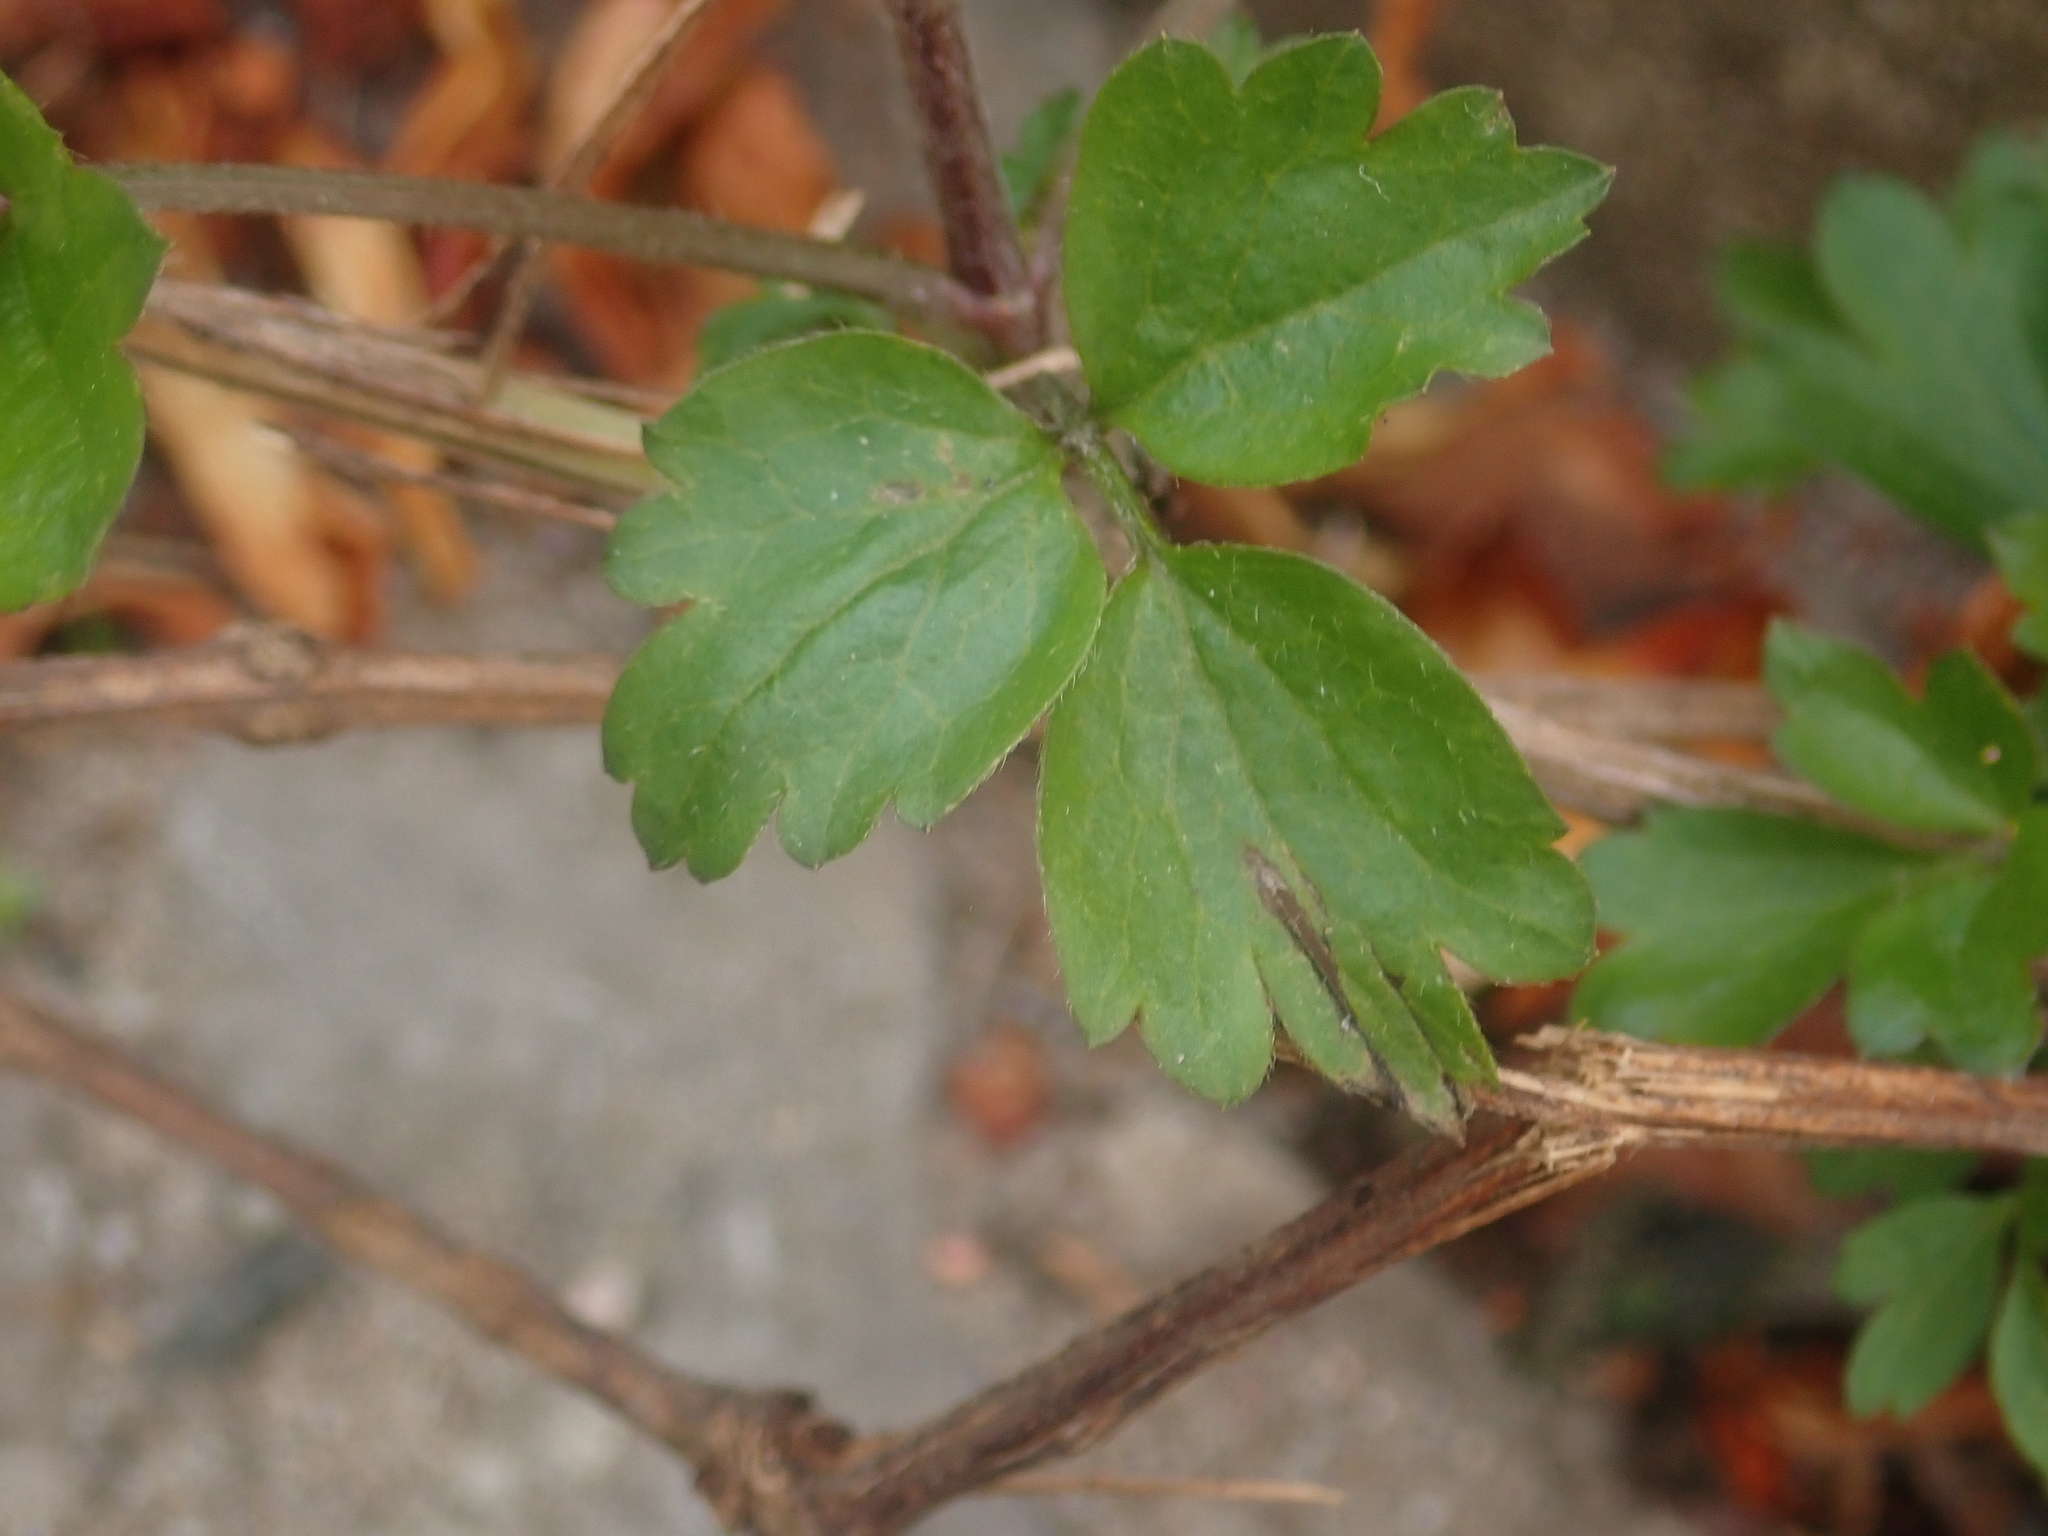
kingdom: Plantae
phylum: Tracheophyta
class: Magnoliopsida
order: Ranunculales
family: Ranunculaceae
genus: Clematis
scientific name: Clematis vitalba
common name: Evergreen clematis
